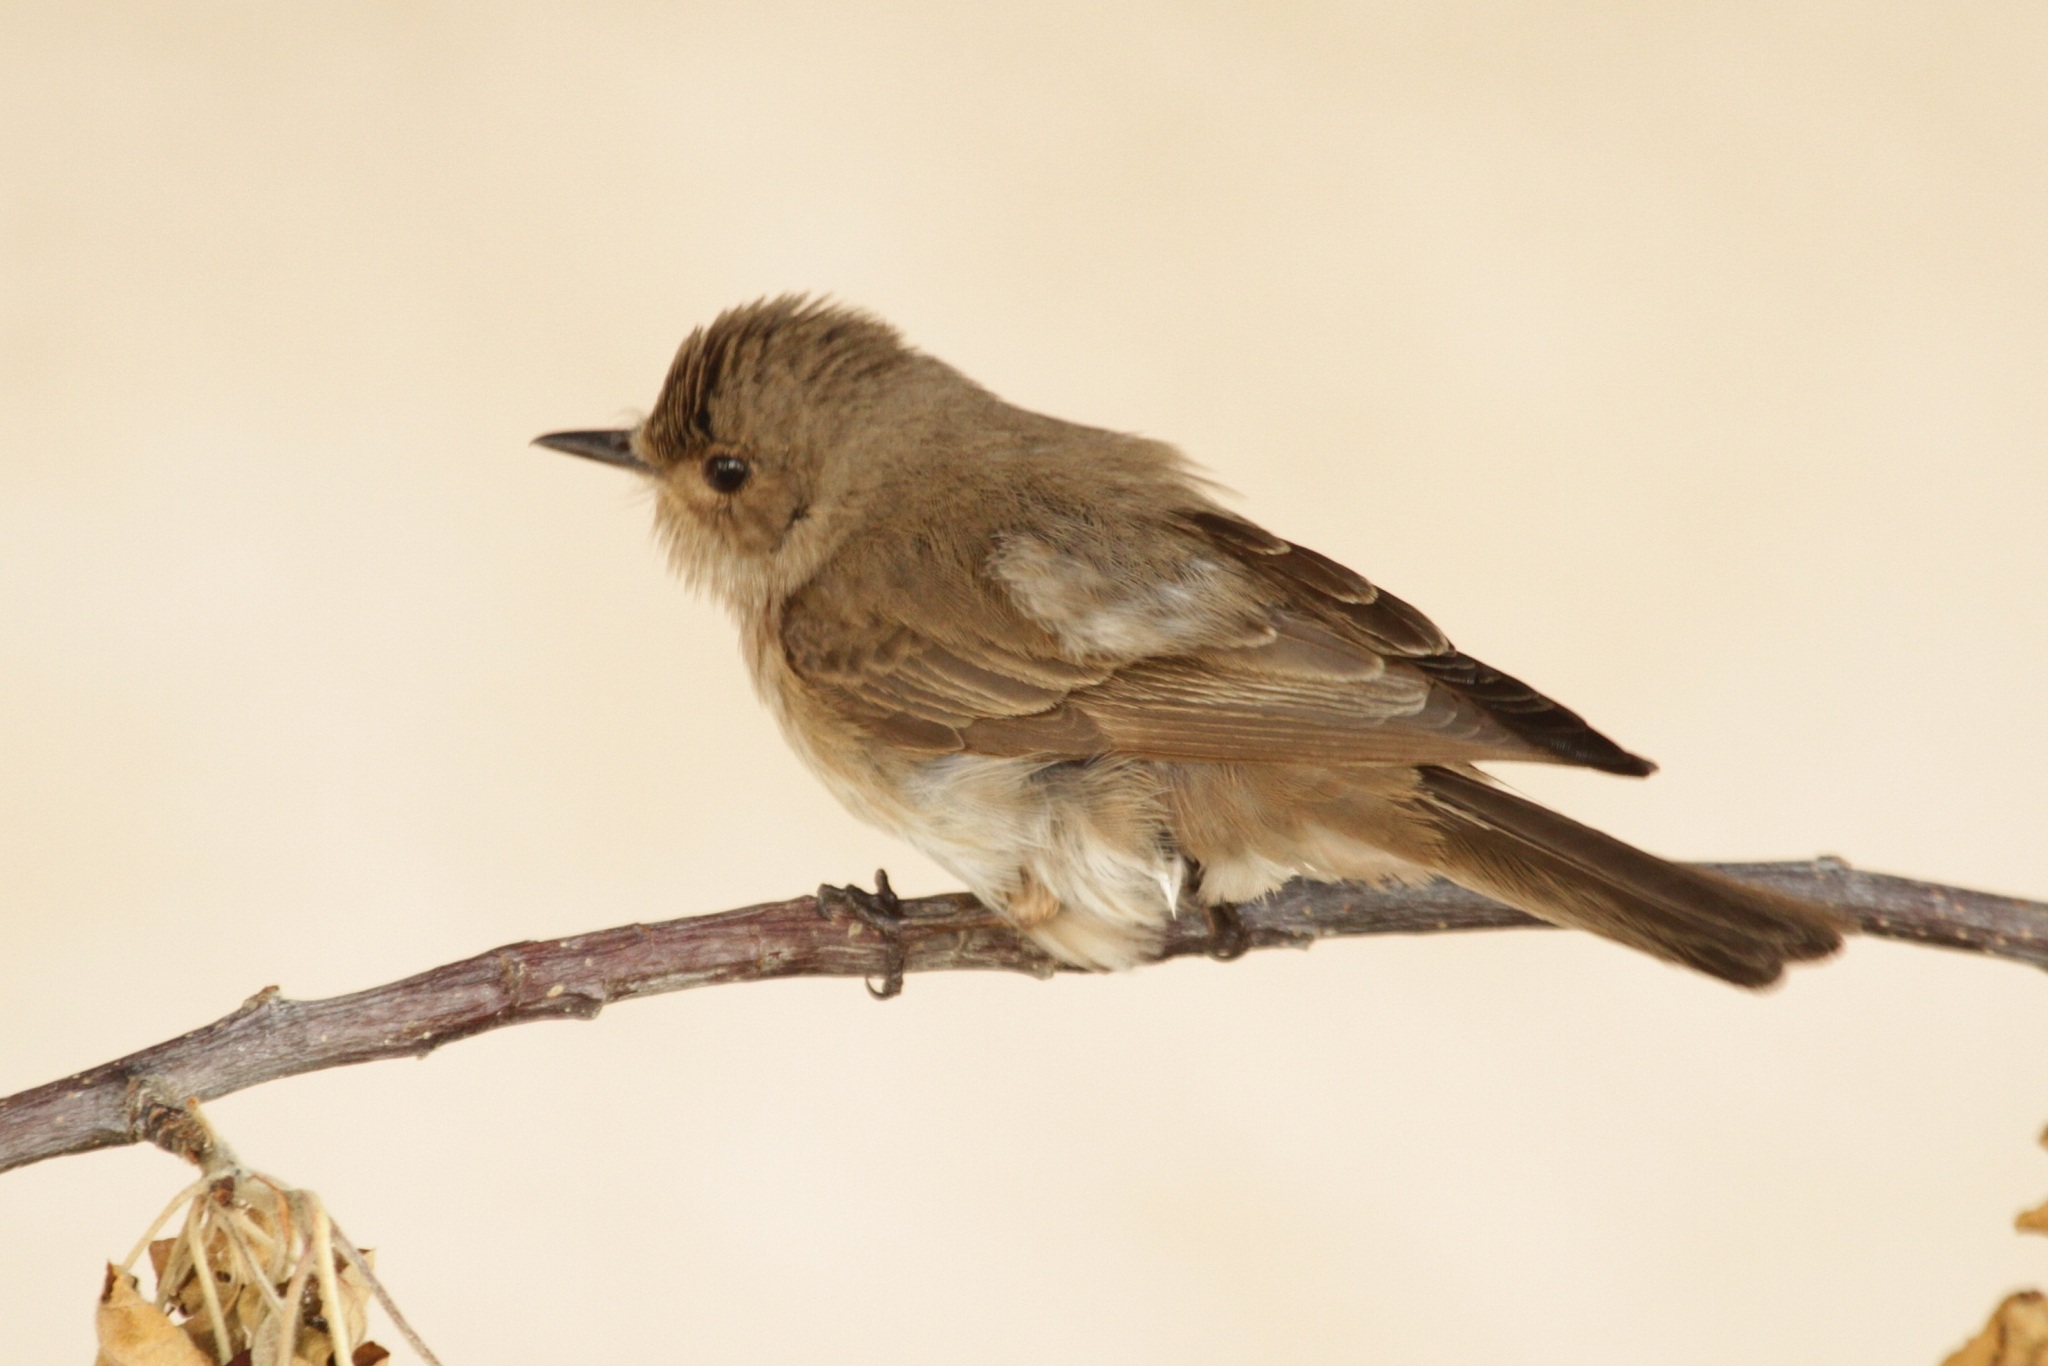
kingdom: Animalia
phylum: Chordata
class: Aves
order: Passeriformes
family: Muscicapidae
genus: Muscicapa
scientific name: Muscicapa striata
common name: Spotted flycatcher
